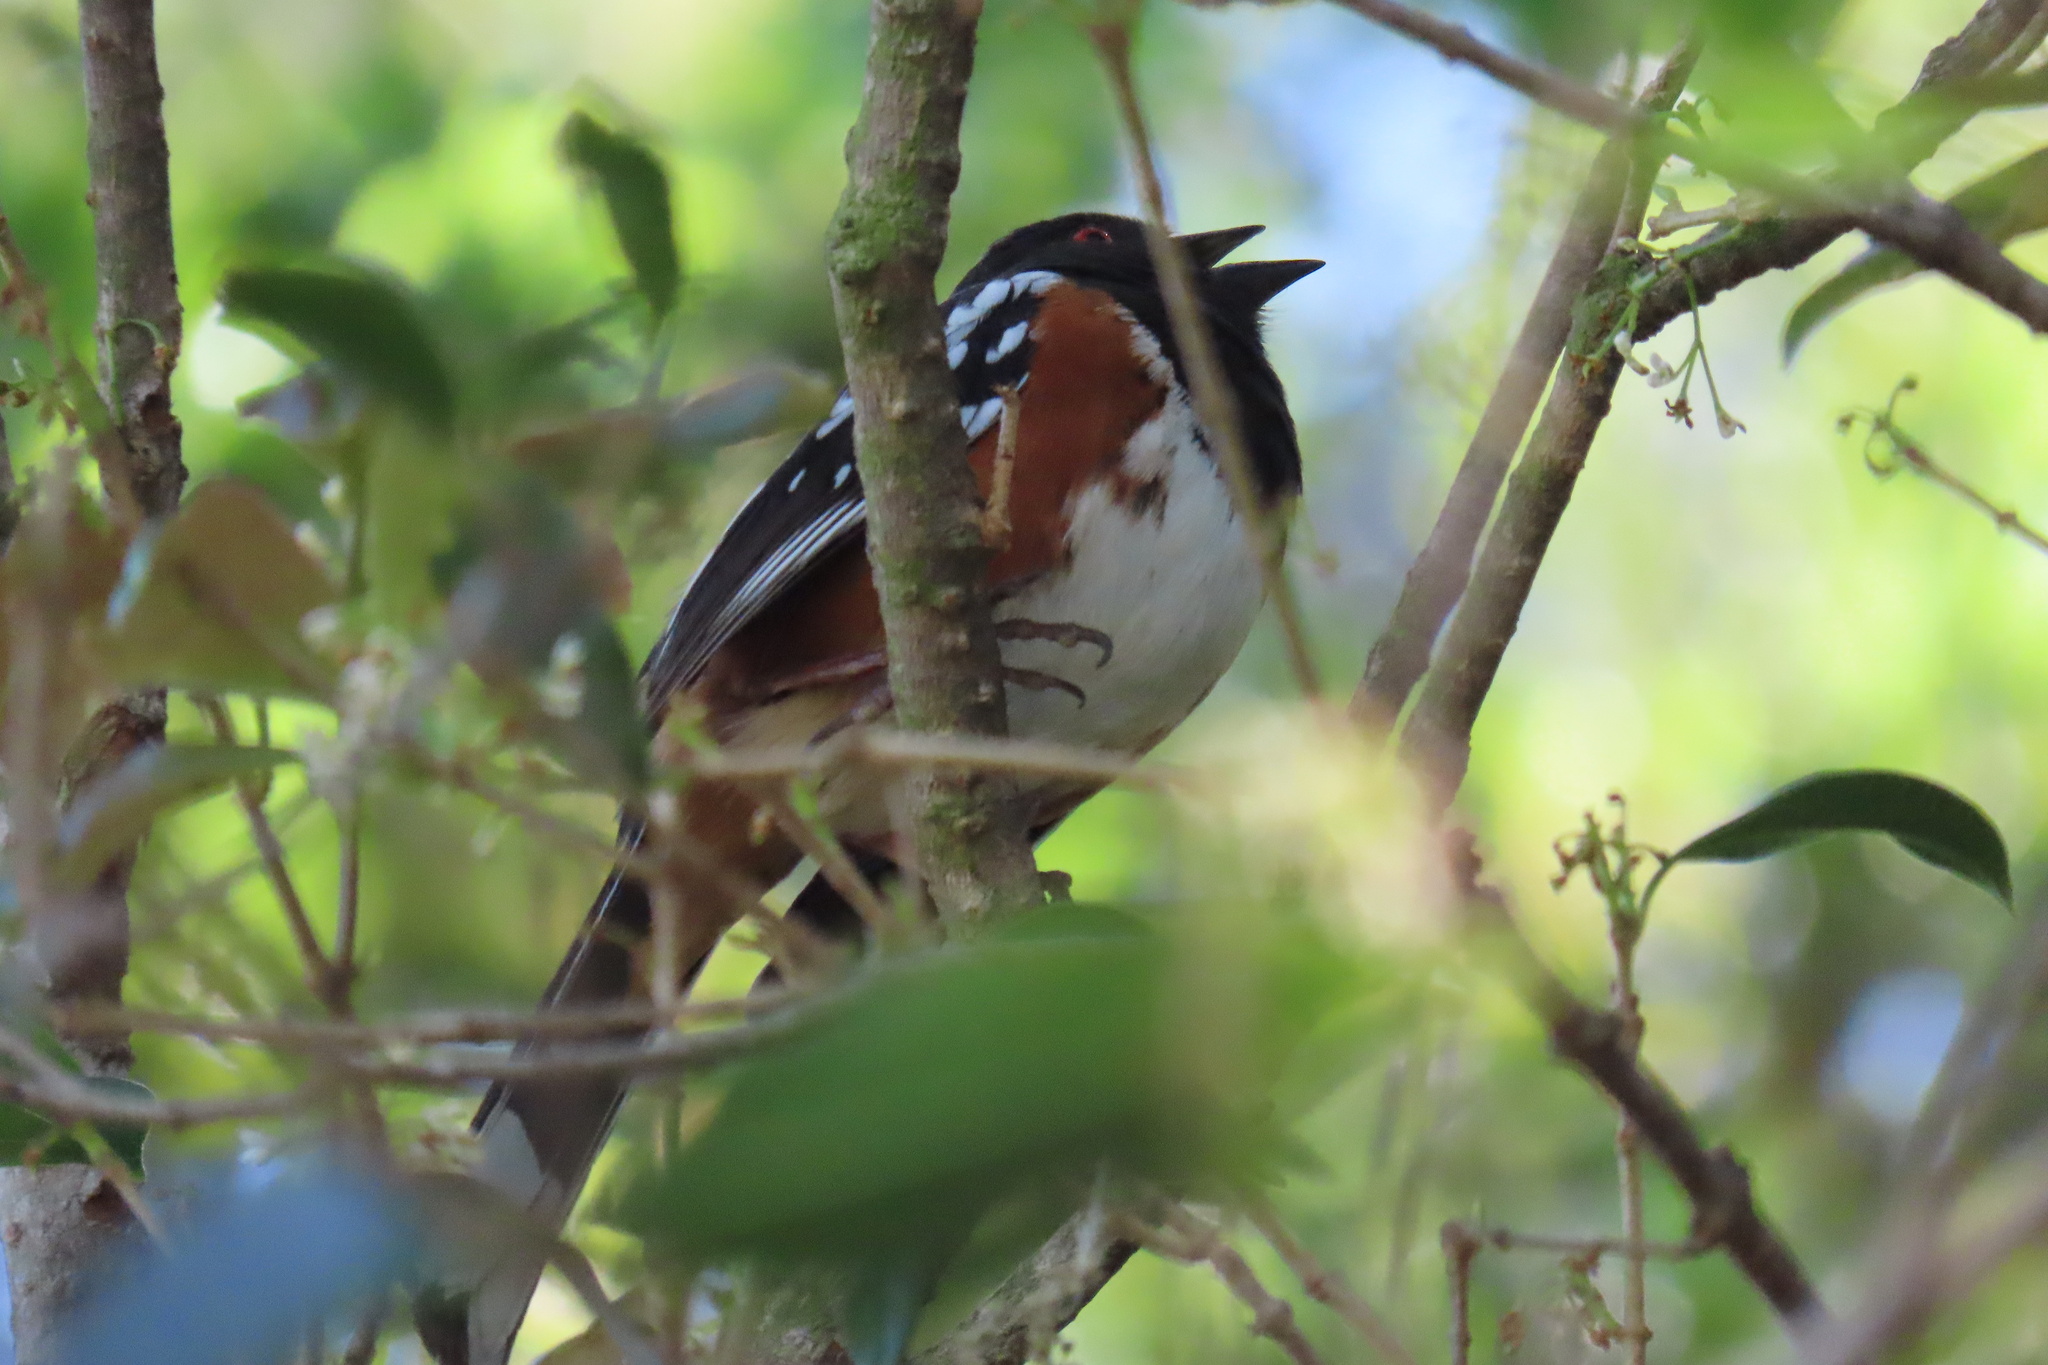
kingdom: Animalia
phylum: Chordata
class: Aves
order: Passeriformes
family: Passerellidae
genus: Pipilo
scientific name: Pipilo maculatus
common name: Spotted towhee
